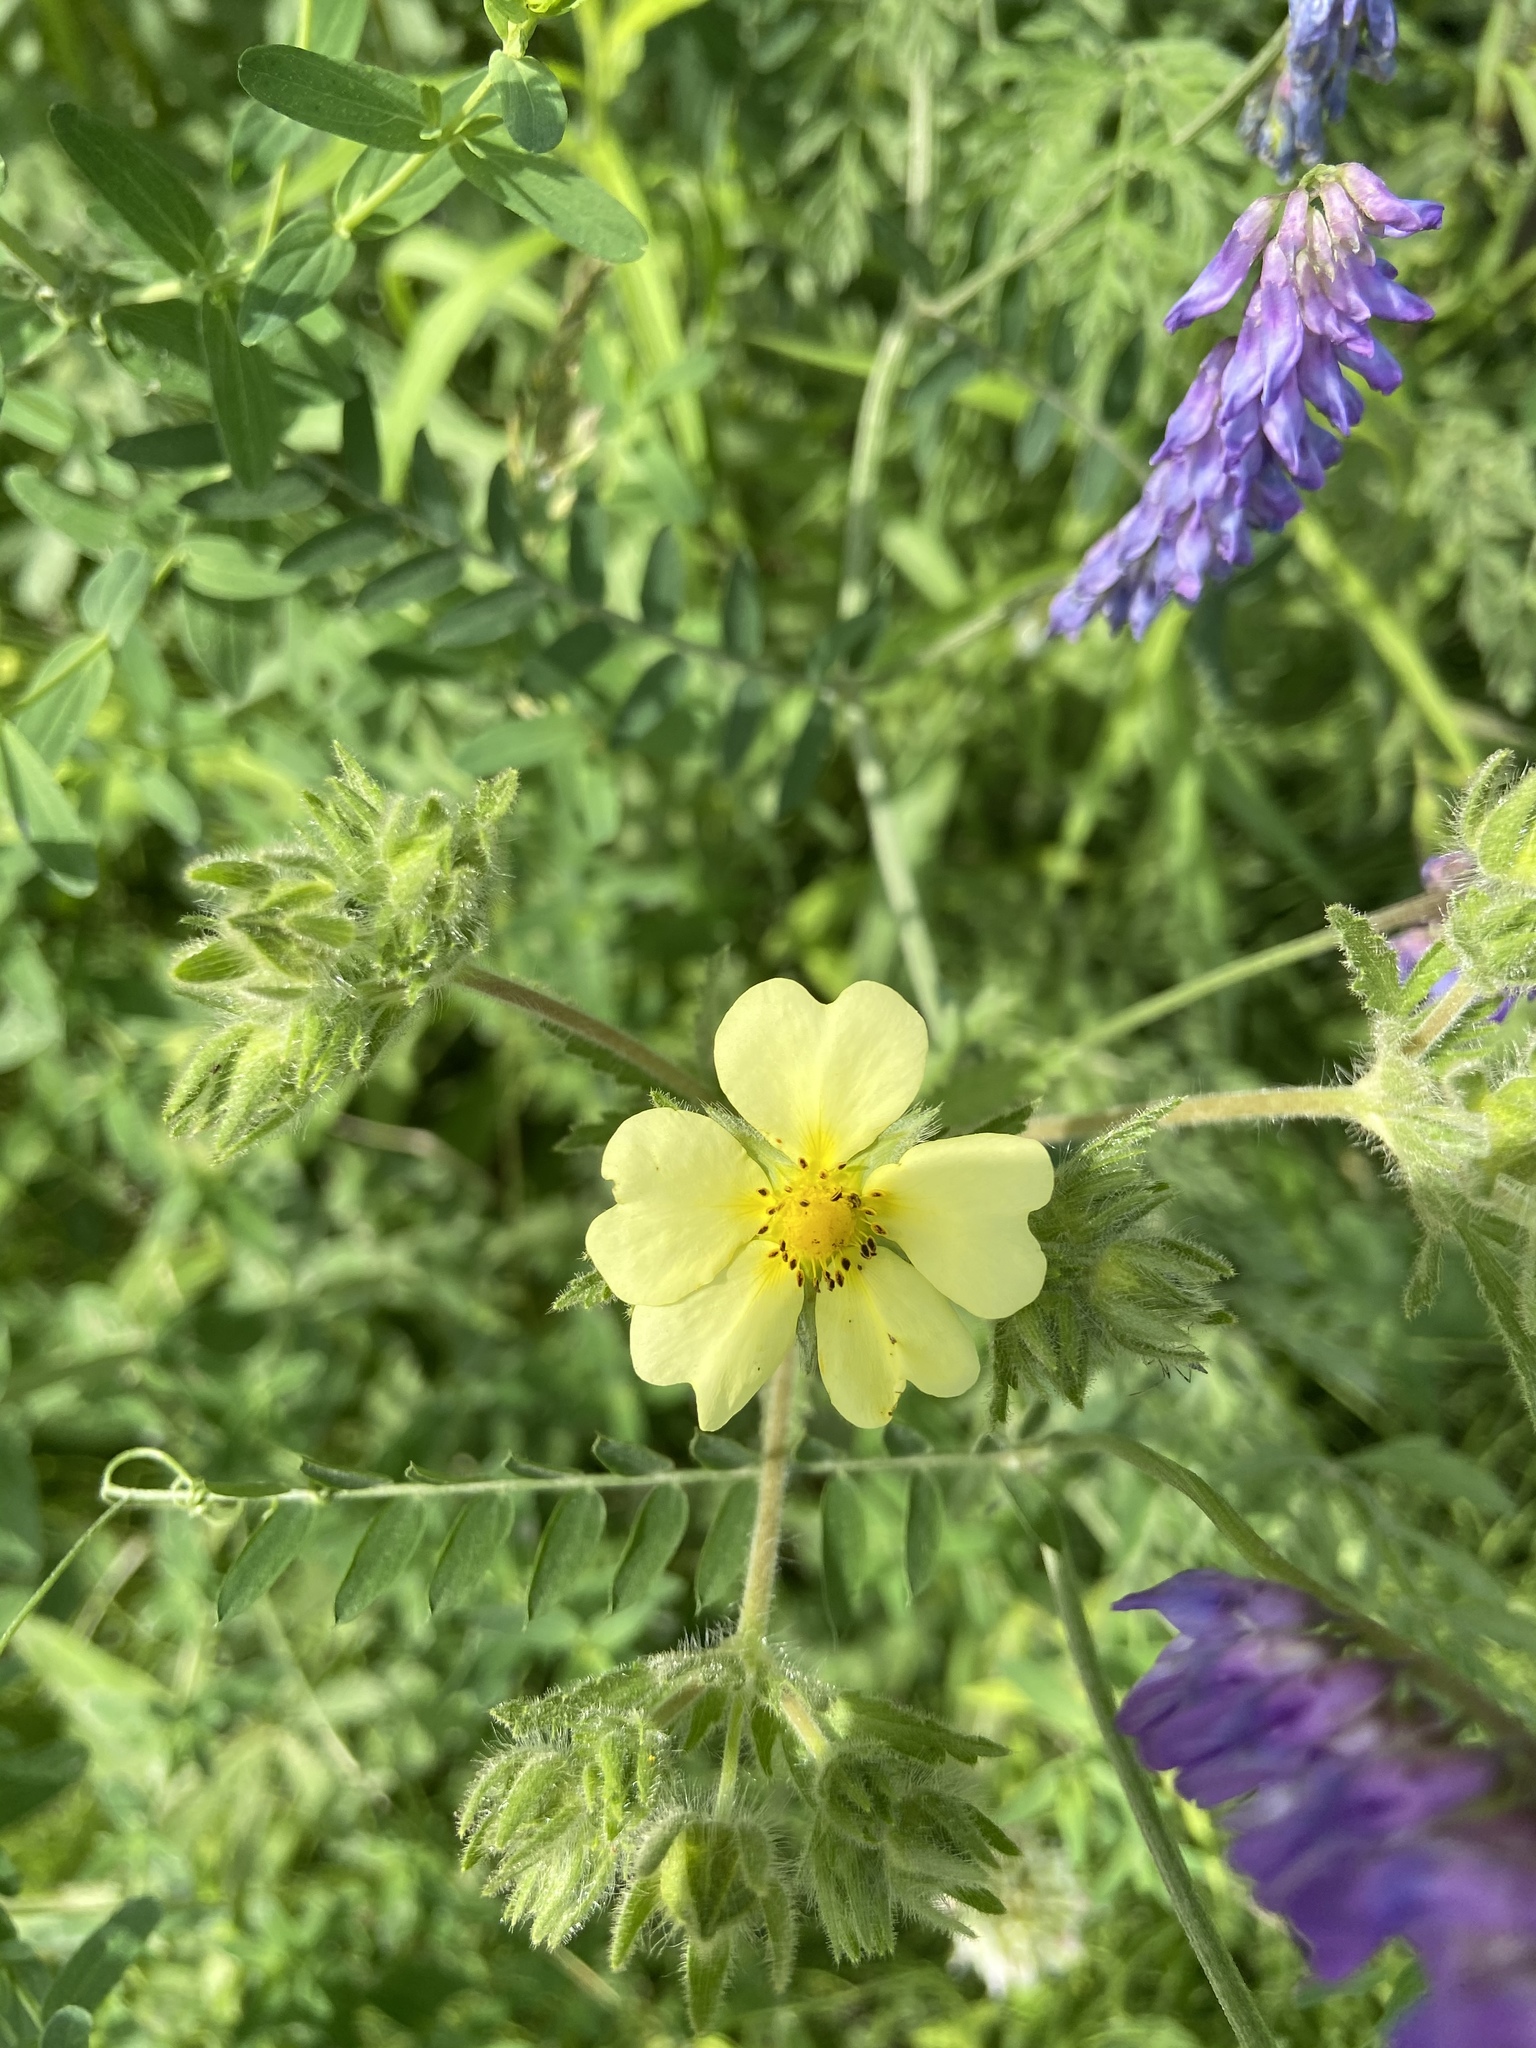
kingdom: Plantae
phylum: Tracheophyta
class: Magnoliopsida
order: Rosales
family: Rosaceae
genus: Potentilla
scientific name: Potentilla recta
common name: Sulphur cinquefoil
